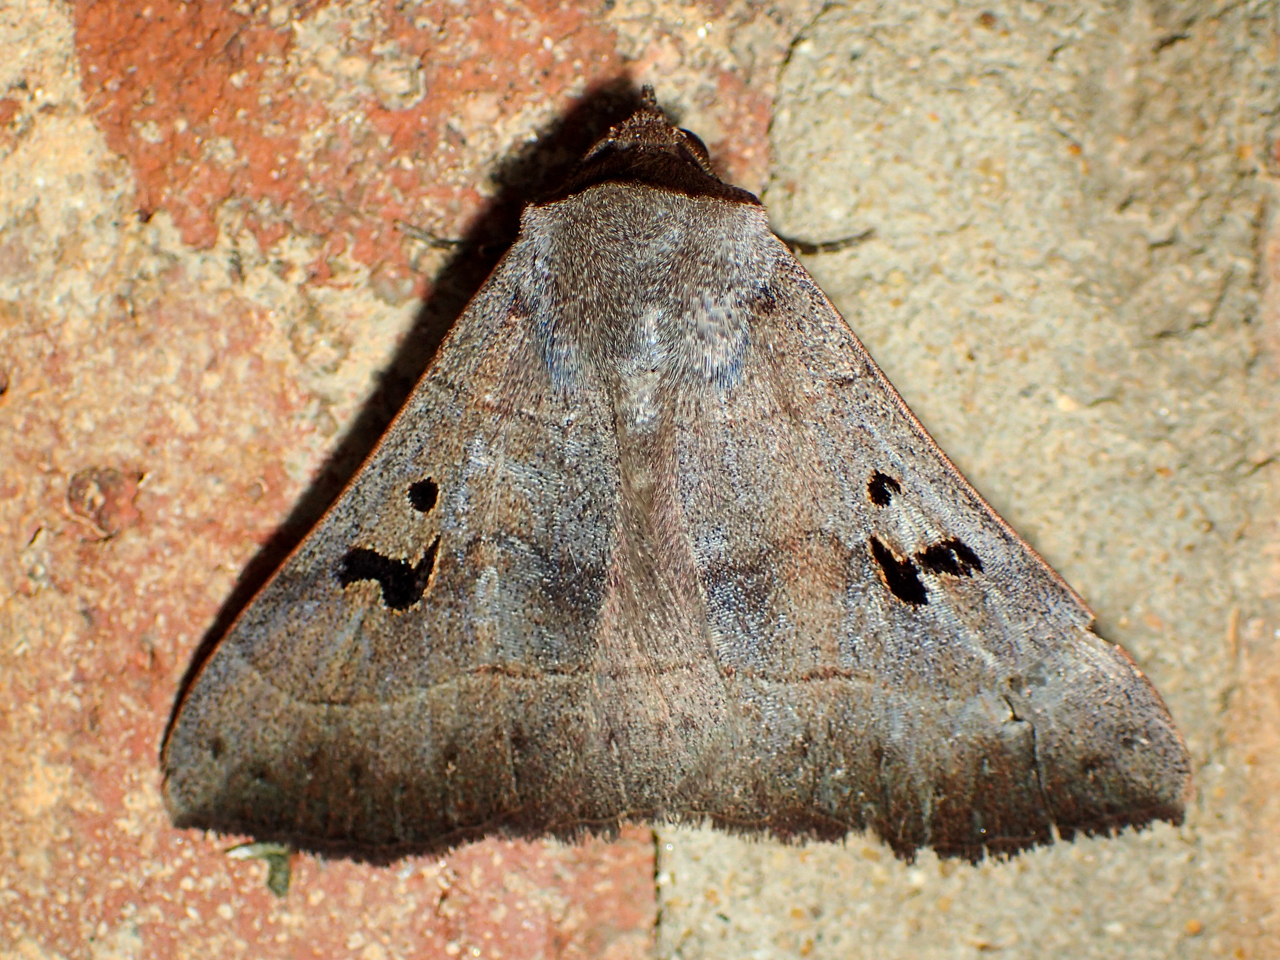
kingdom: Animalia
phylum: Arthropoda
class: Insecta
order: Lepidoptera
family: Erebidae
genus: Panopoda
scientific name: Panopoda carneicosta
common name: Brown panopoda moth
